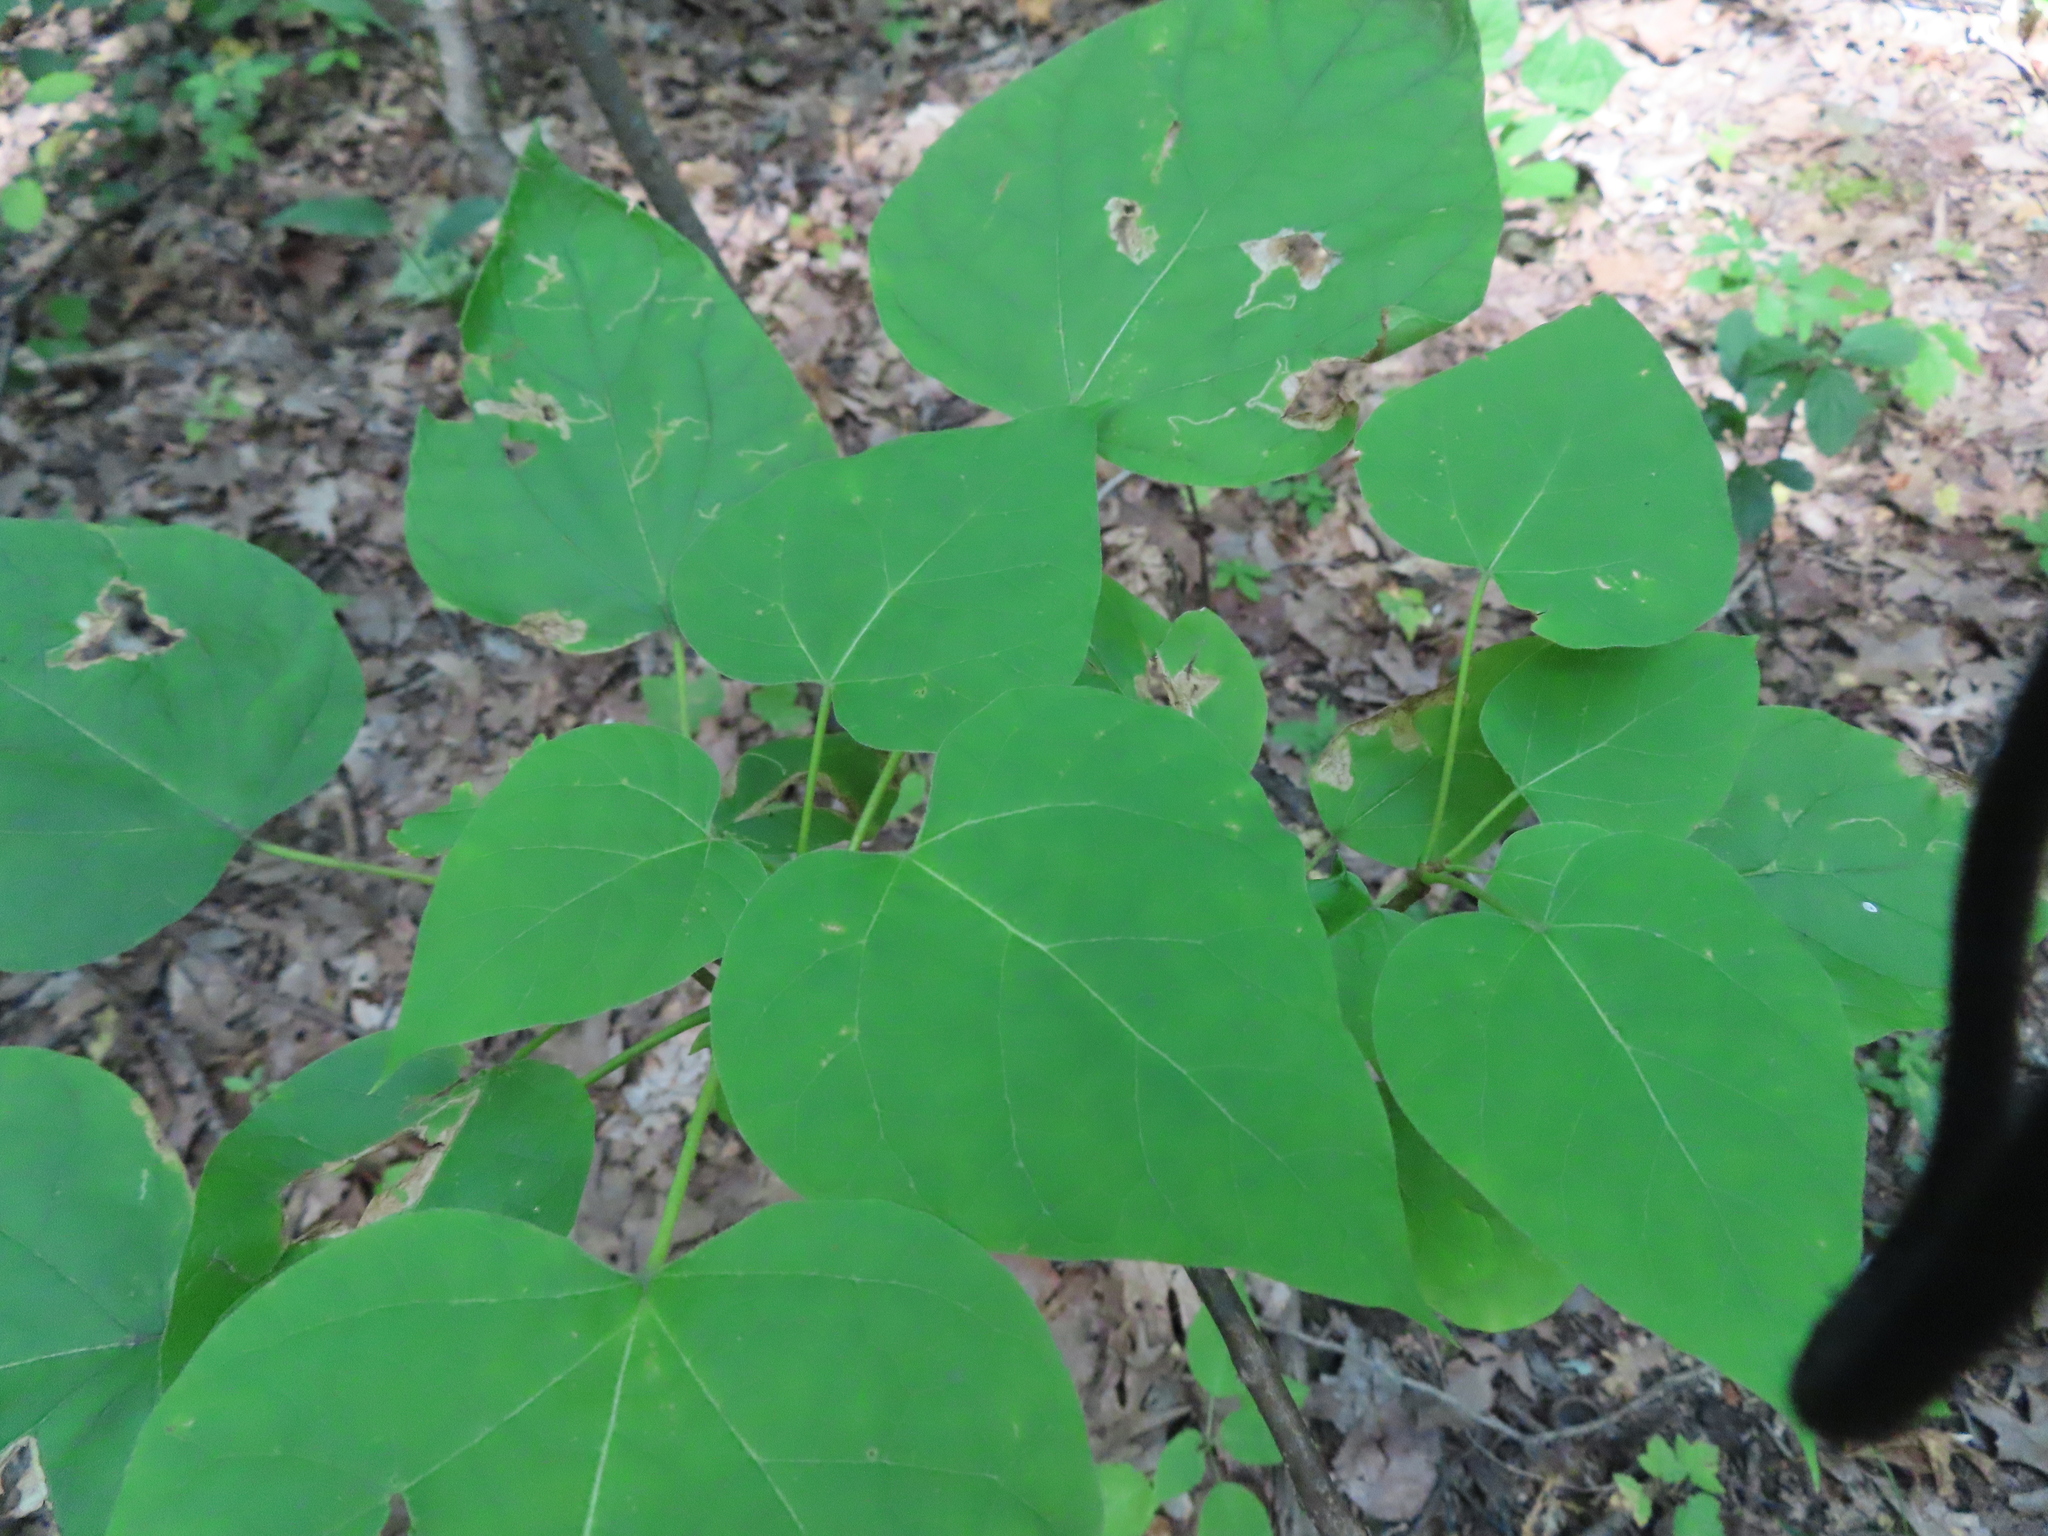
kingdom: Animalia
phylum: Arthropoda
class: Insecta
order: Diptera
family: Agromyzidae
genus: Amauromyza
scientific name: Amauromyza pleuralis
